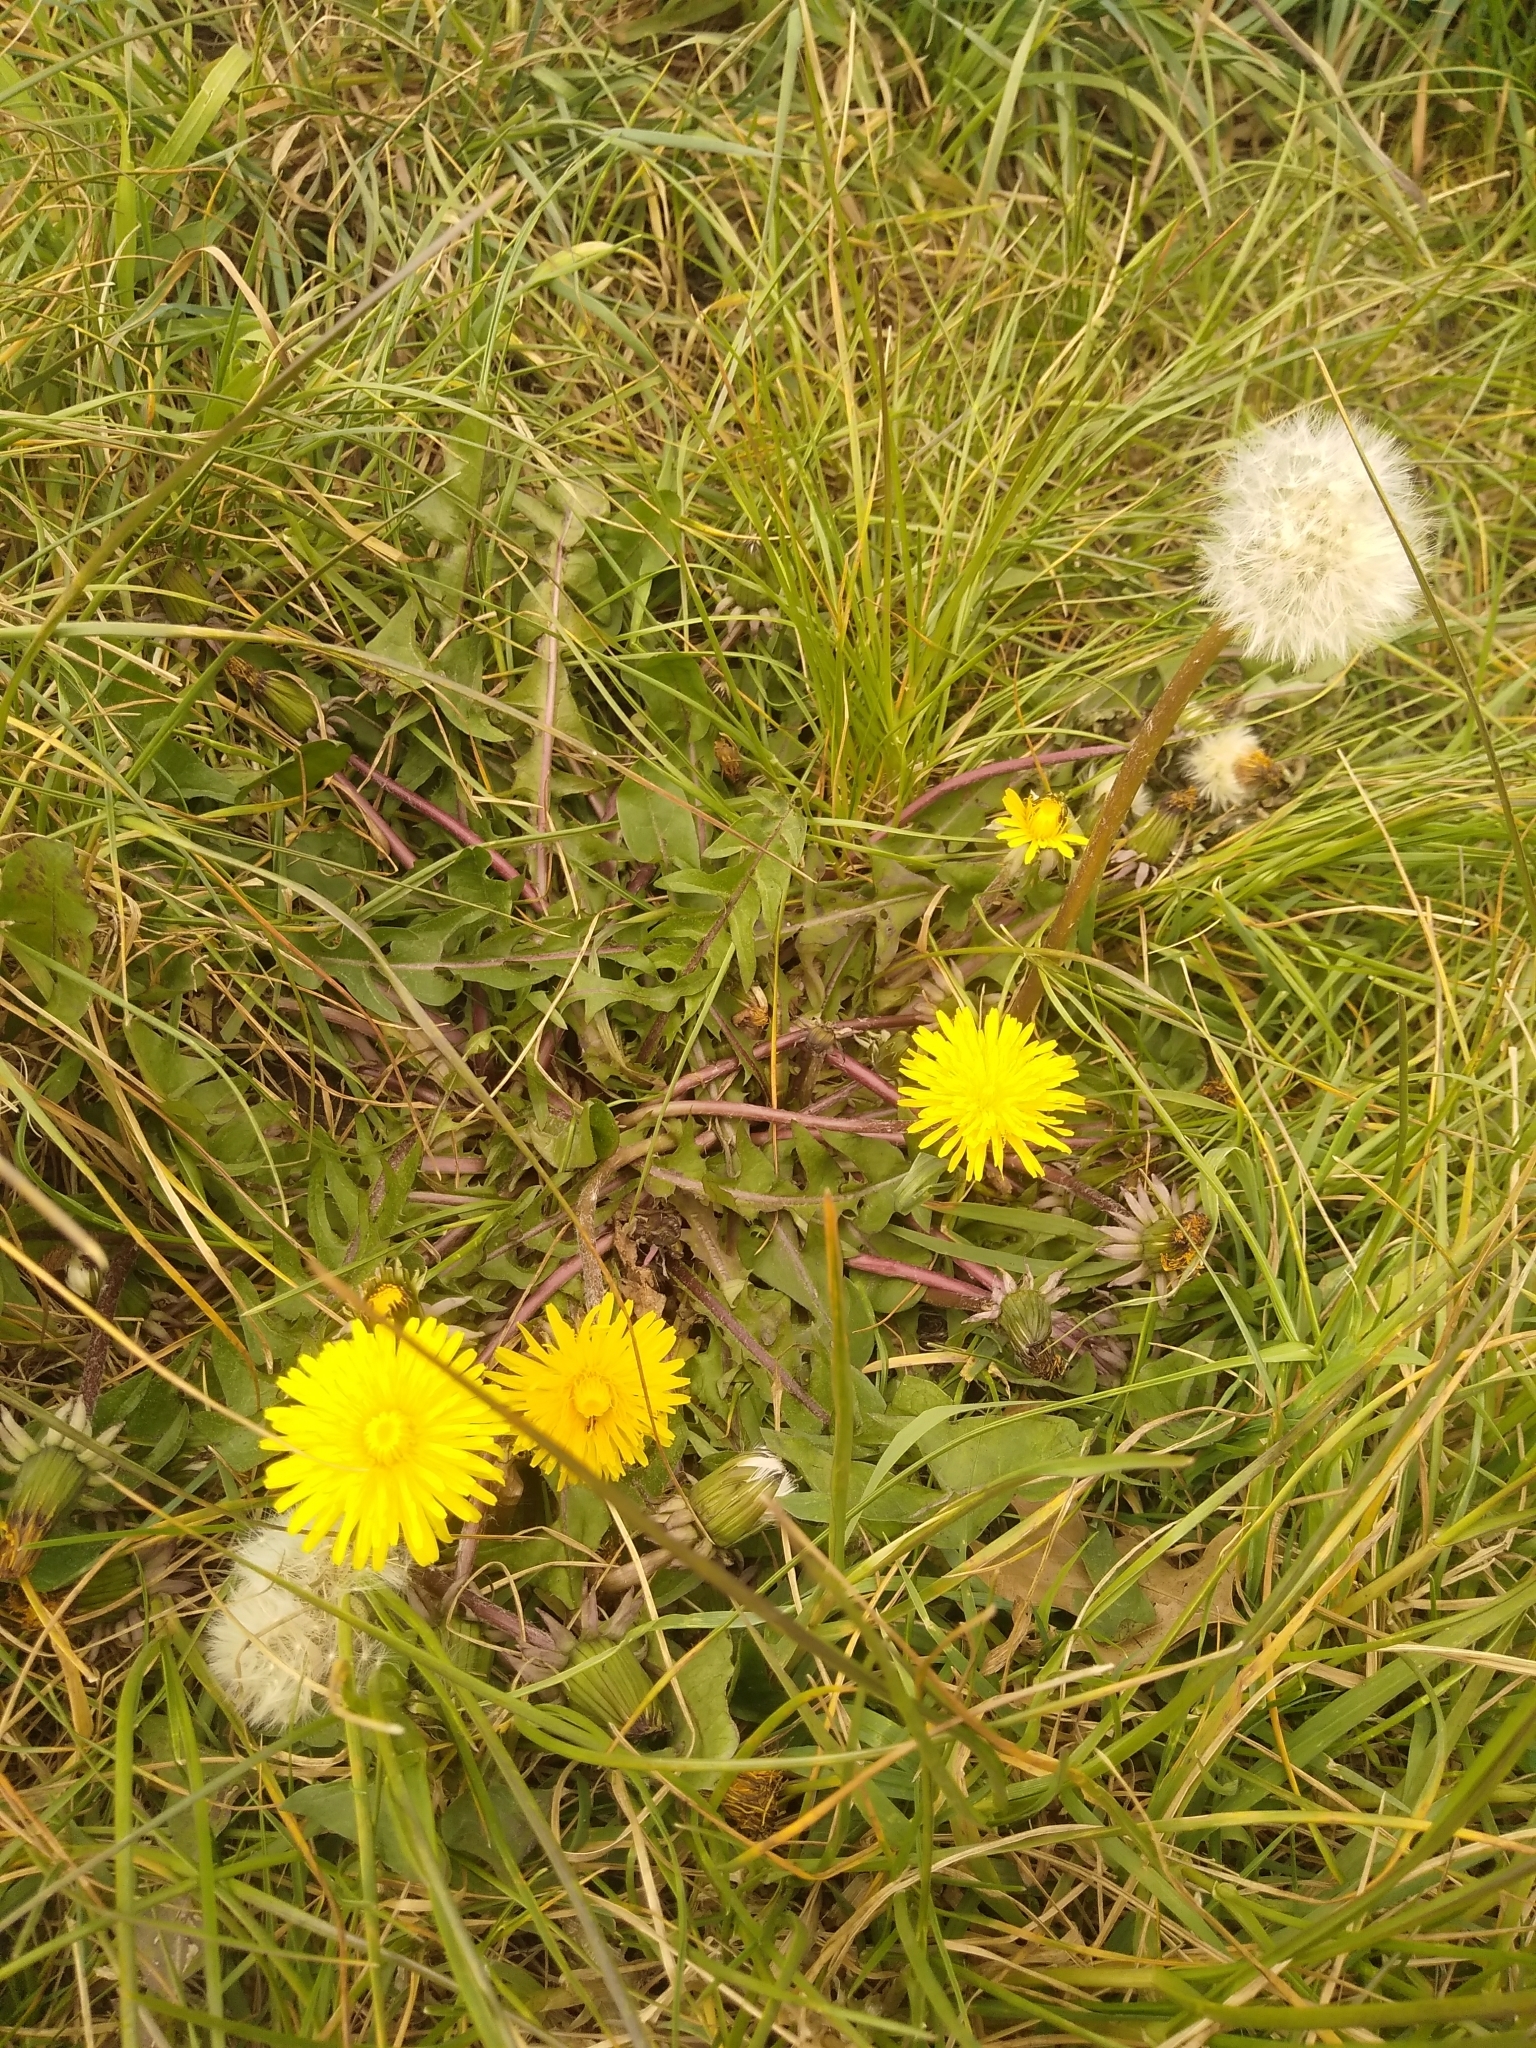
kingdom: Plantae
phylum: Tracheophyta
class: Magnoliopsida
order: Asterales
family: Asteraceae
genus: Taraxacum
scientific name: Taraxacum officinale
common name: Common dandelion
